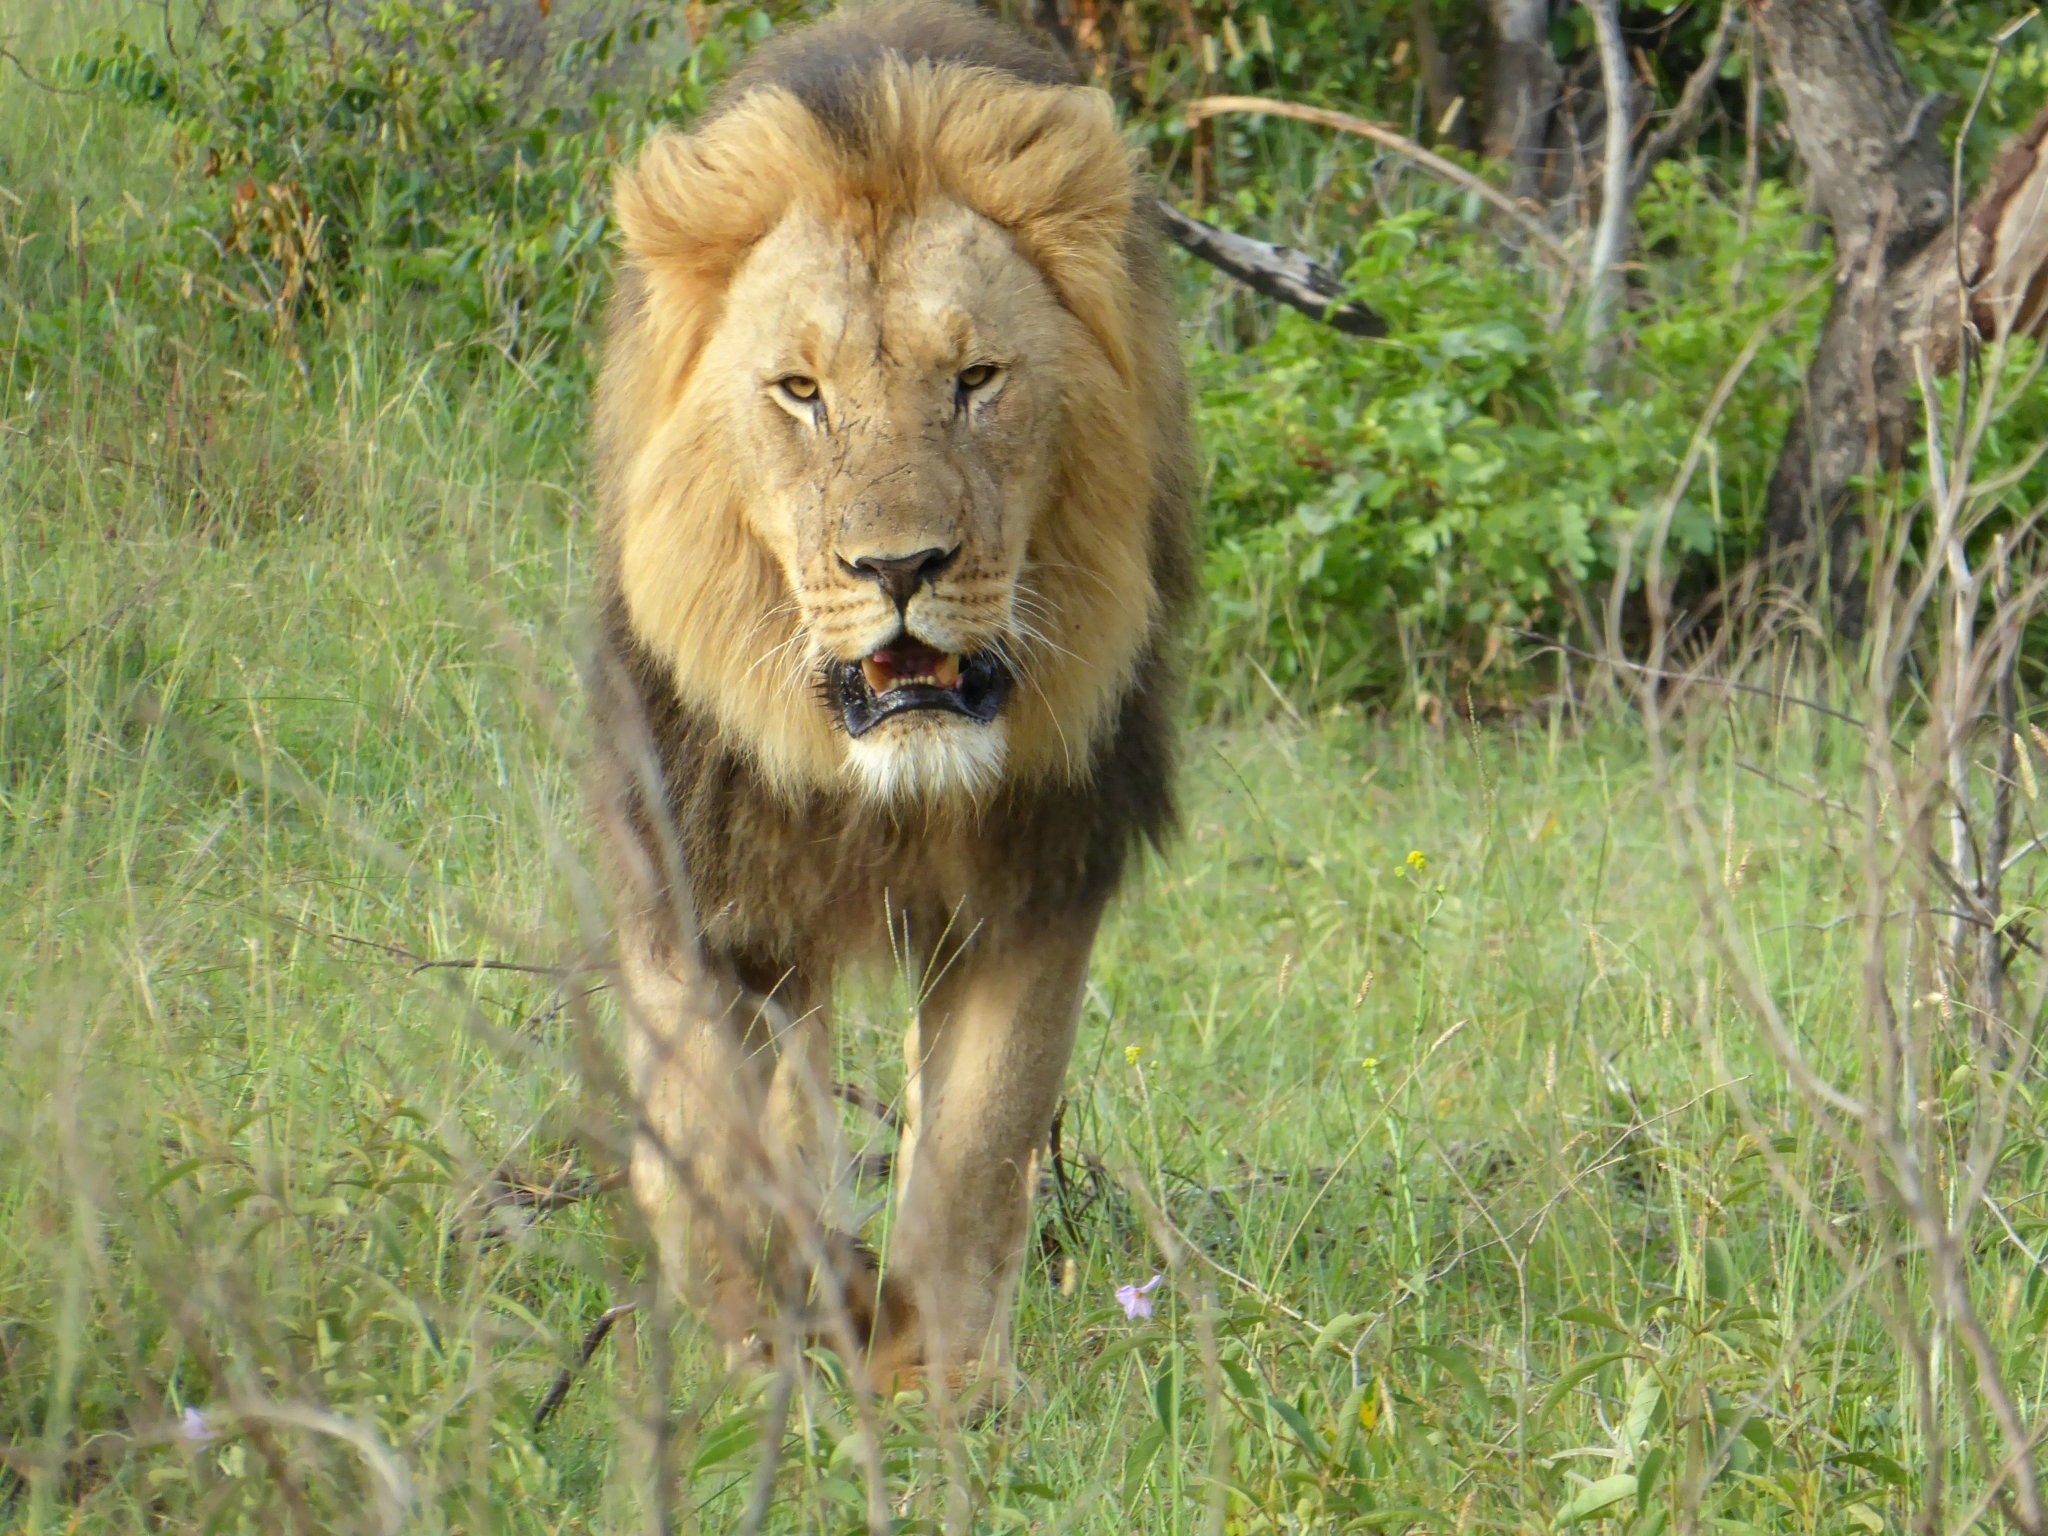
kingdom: Animalia
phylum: Chordata
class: Mammalia
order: Carnivora
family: Felidae
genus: Panthera
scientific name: Panthera leo
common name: Lion
